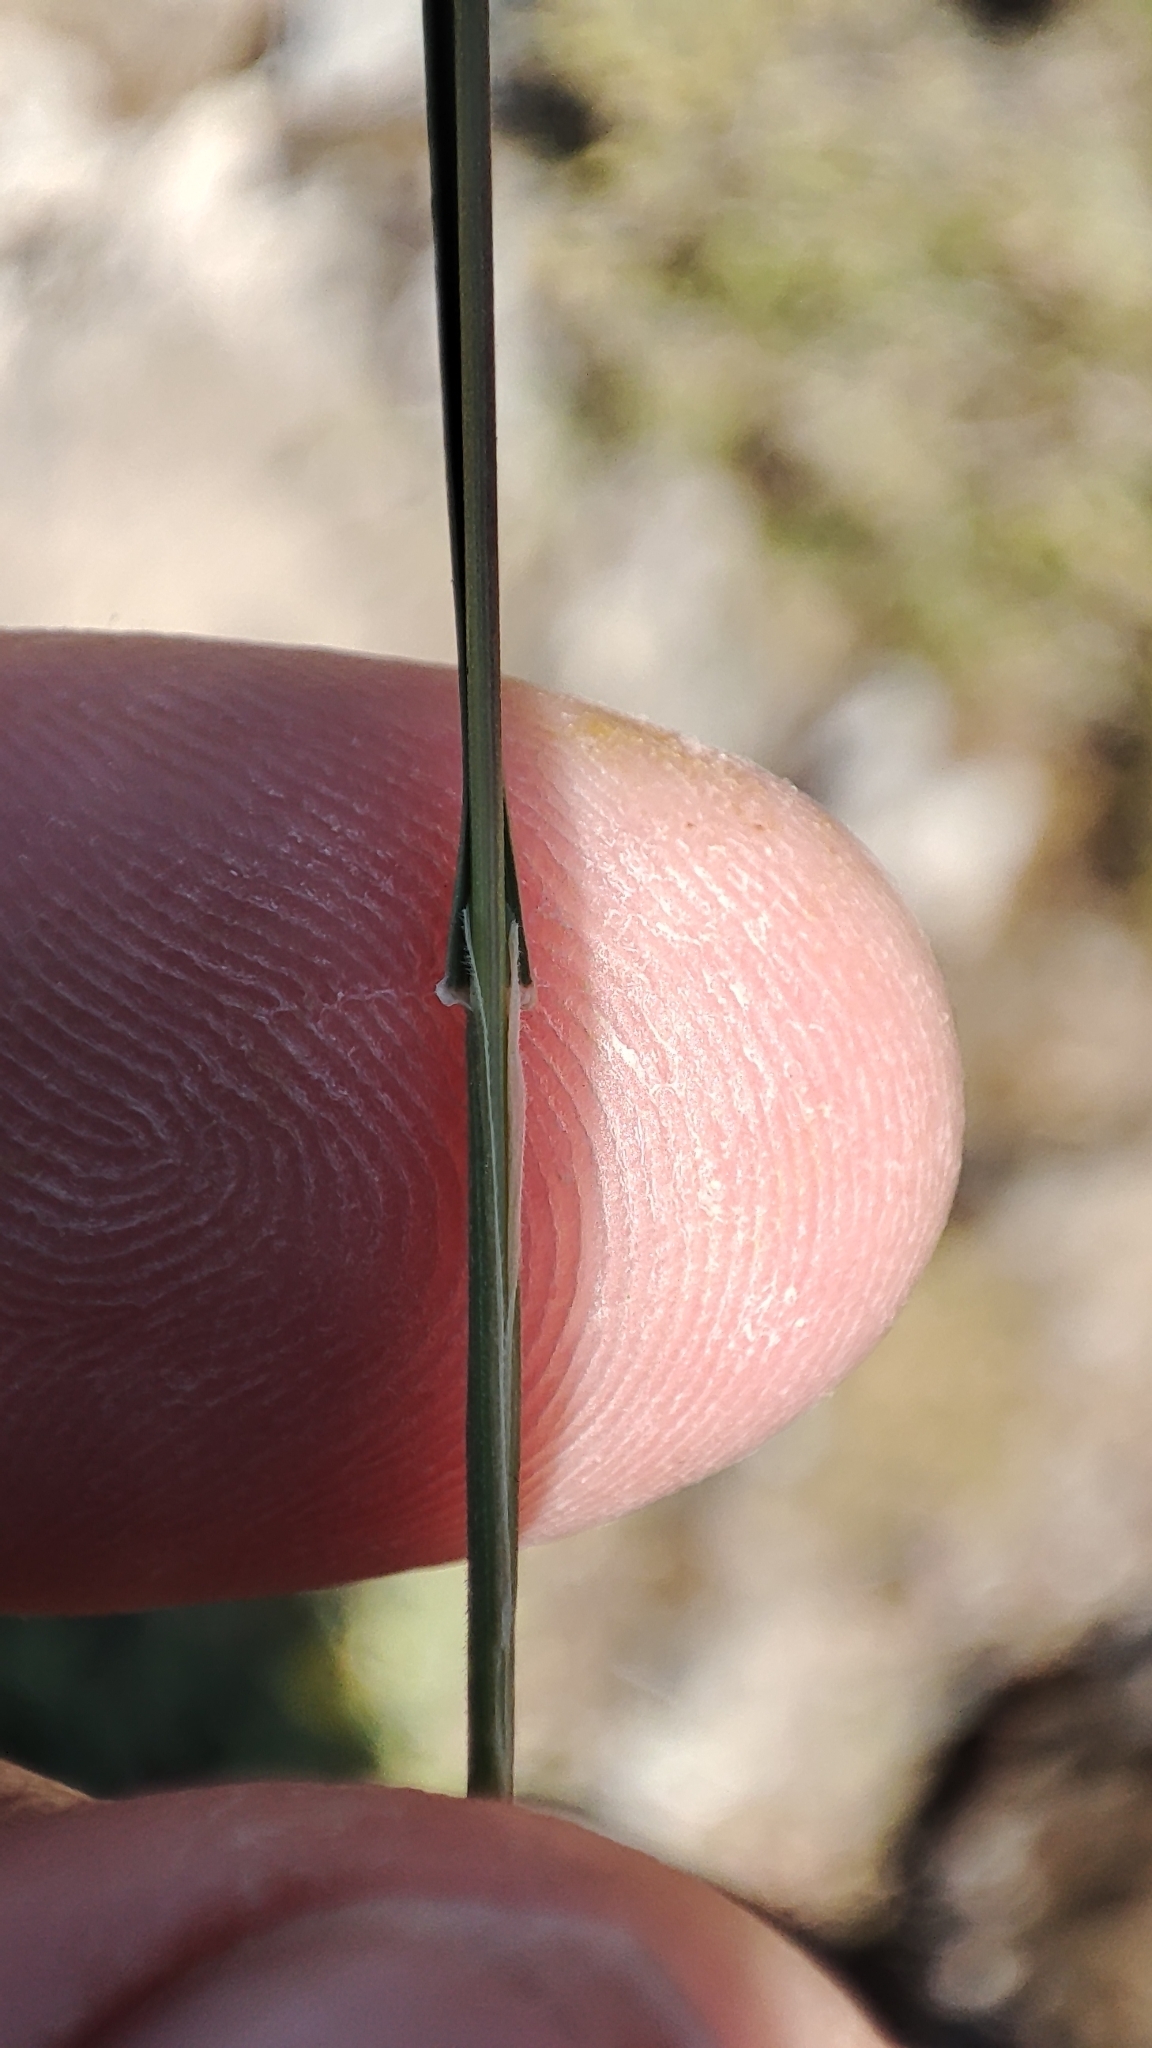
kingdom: Plantae
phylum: Tracheophyta
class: Liliopsida
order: Poales
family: Poaceae
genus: Anthoxanthum
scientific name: Anthoxanthum odoratum
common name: Sweet vernalgrass
